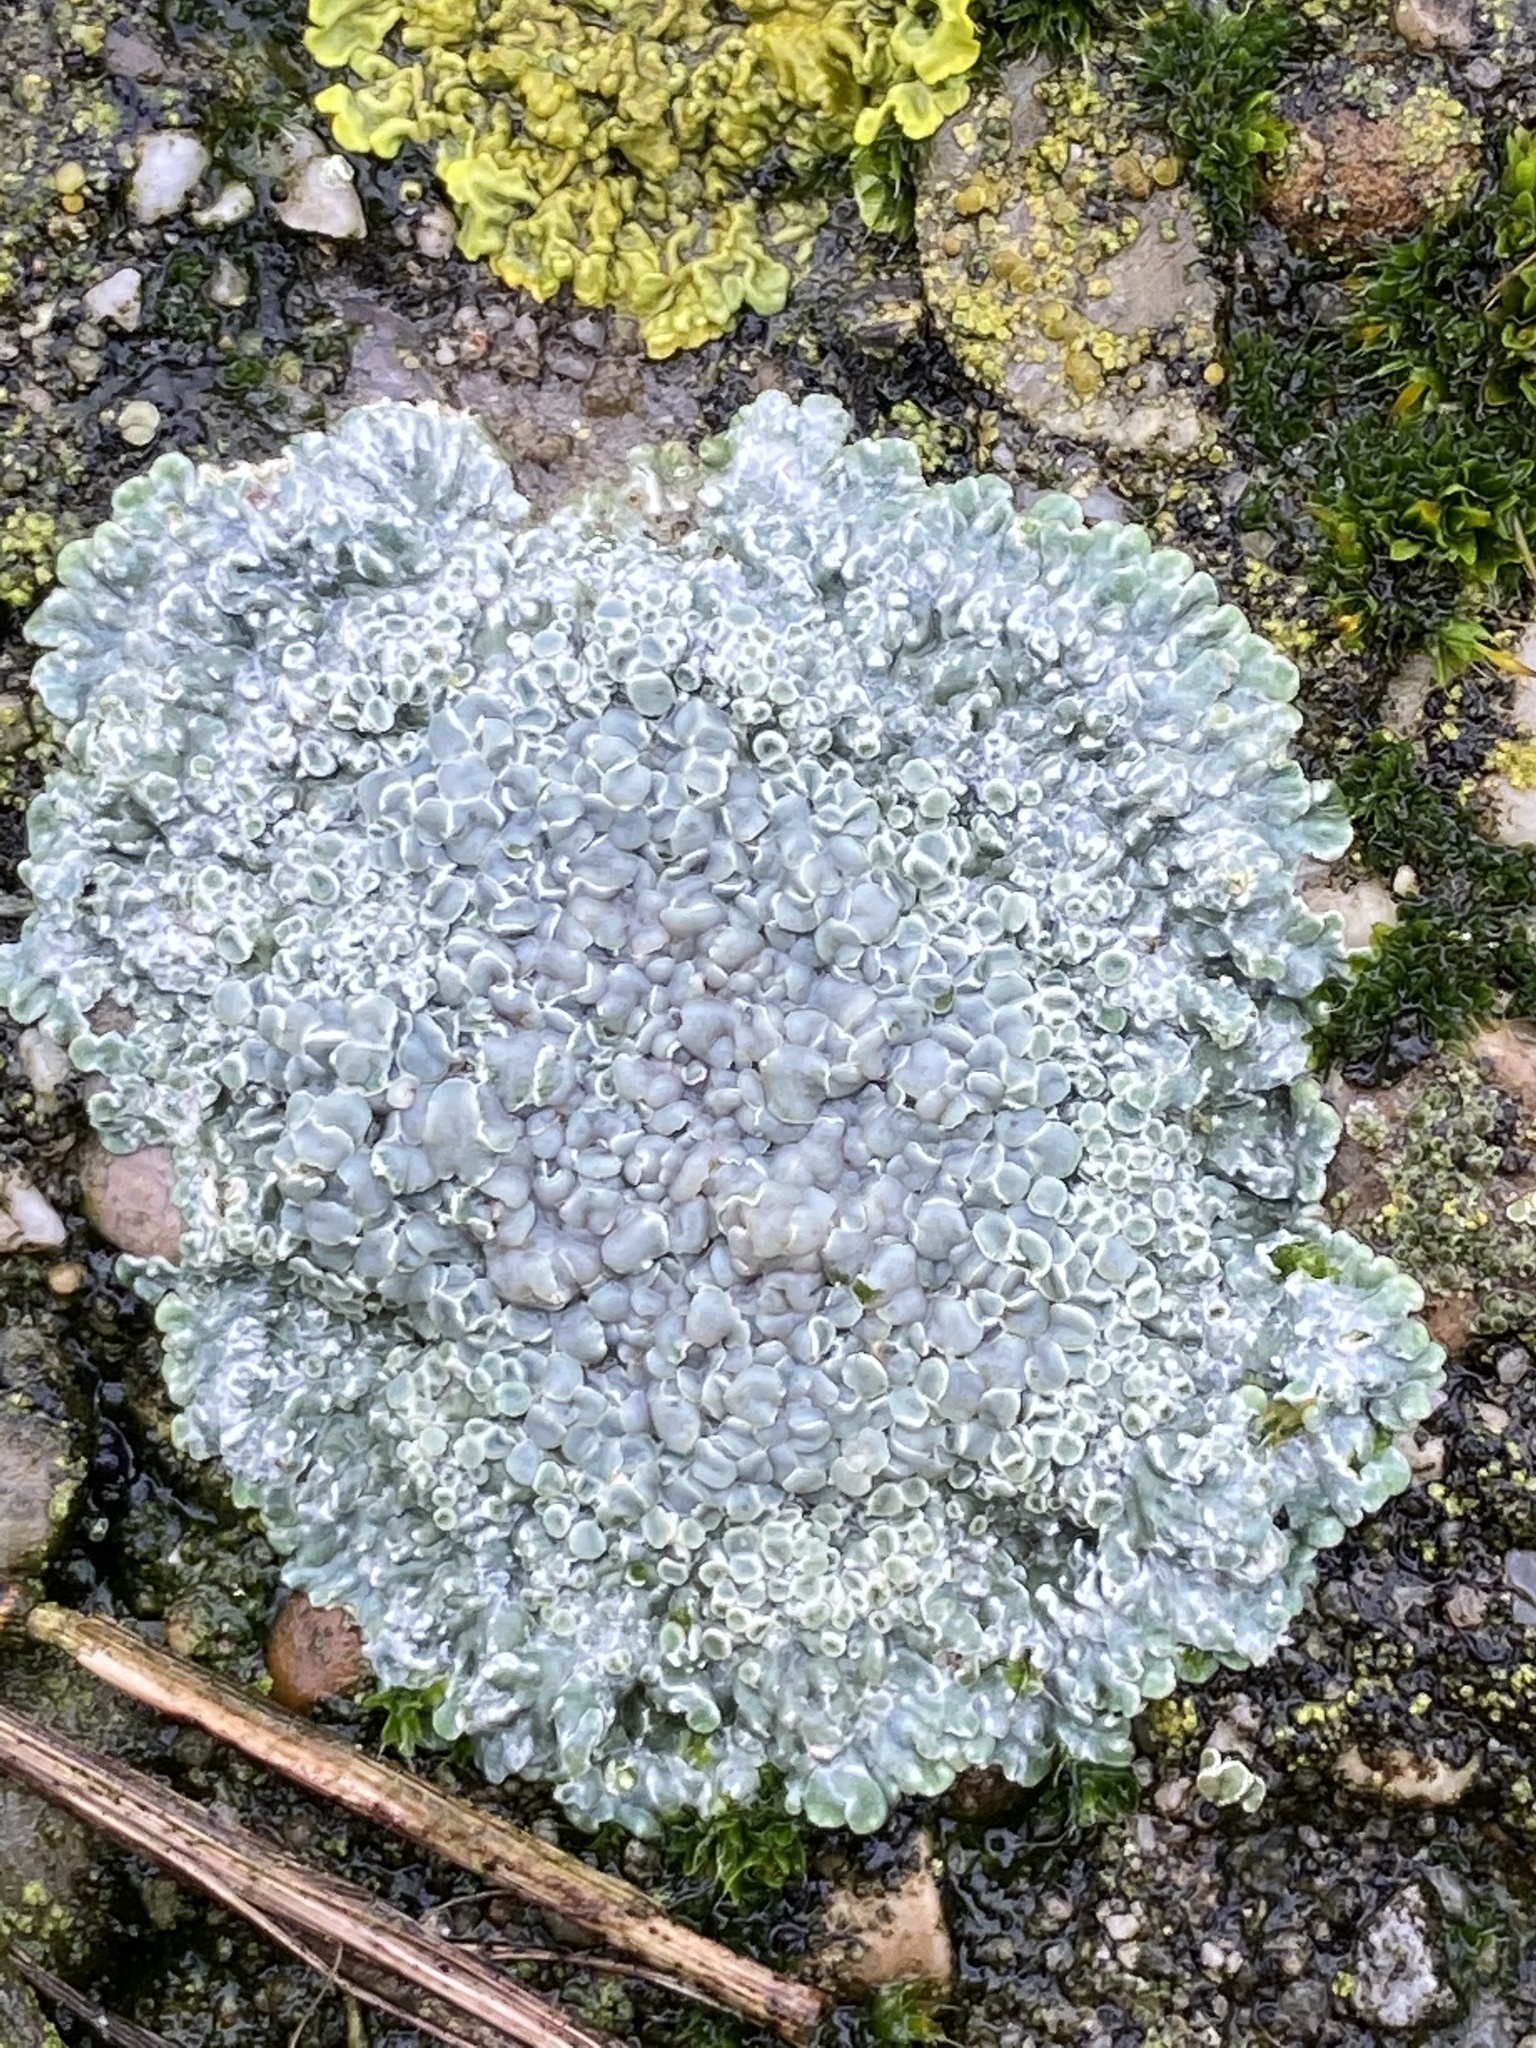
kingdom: Fungi
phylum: Ascomycota
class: Lecanoromycetes
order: Lecanorales
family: Lecanoraceae
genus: Protoparmeliopsis
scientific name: Protoparmeliopsis muralis
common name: Stonewall rim lichen
